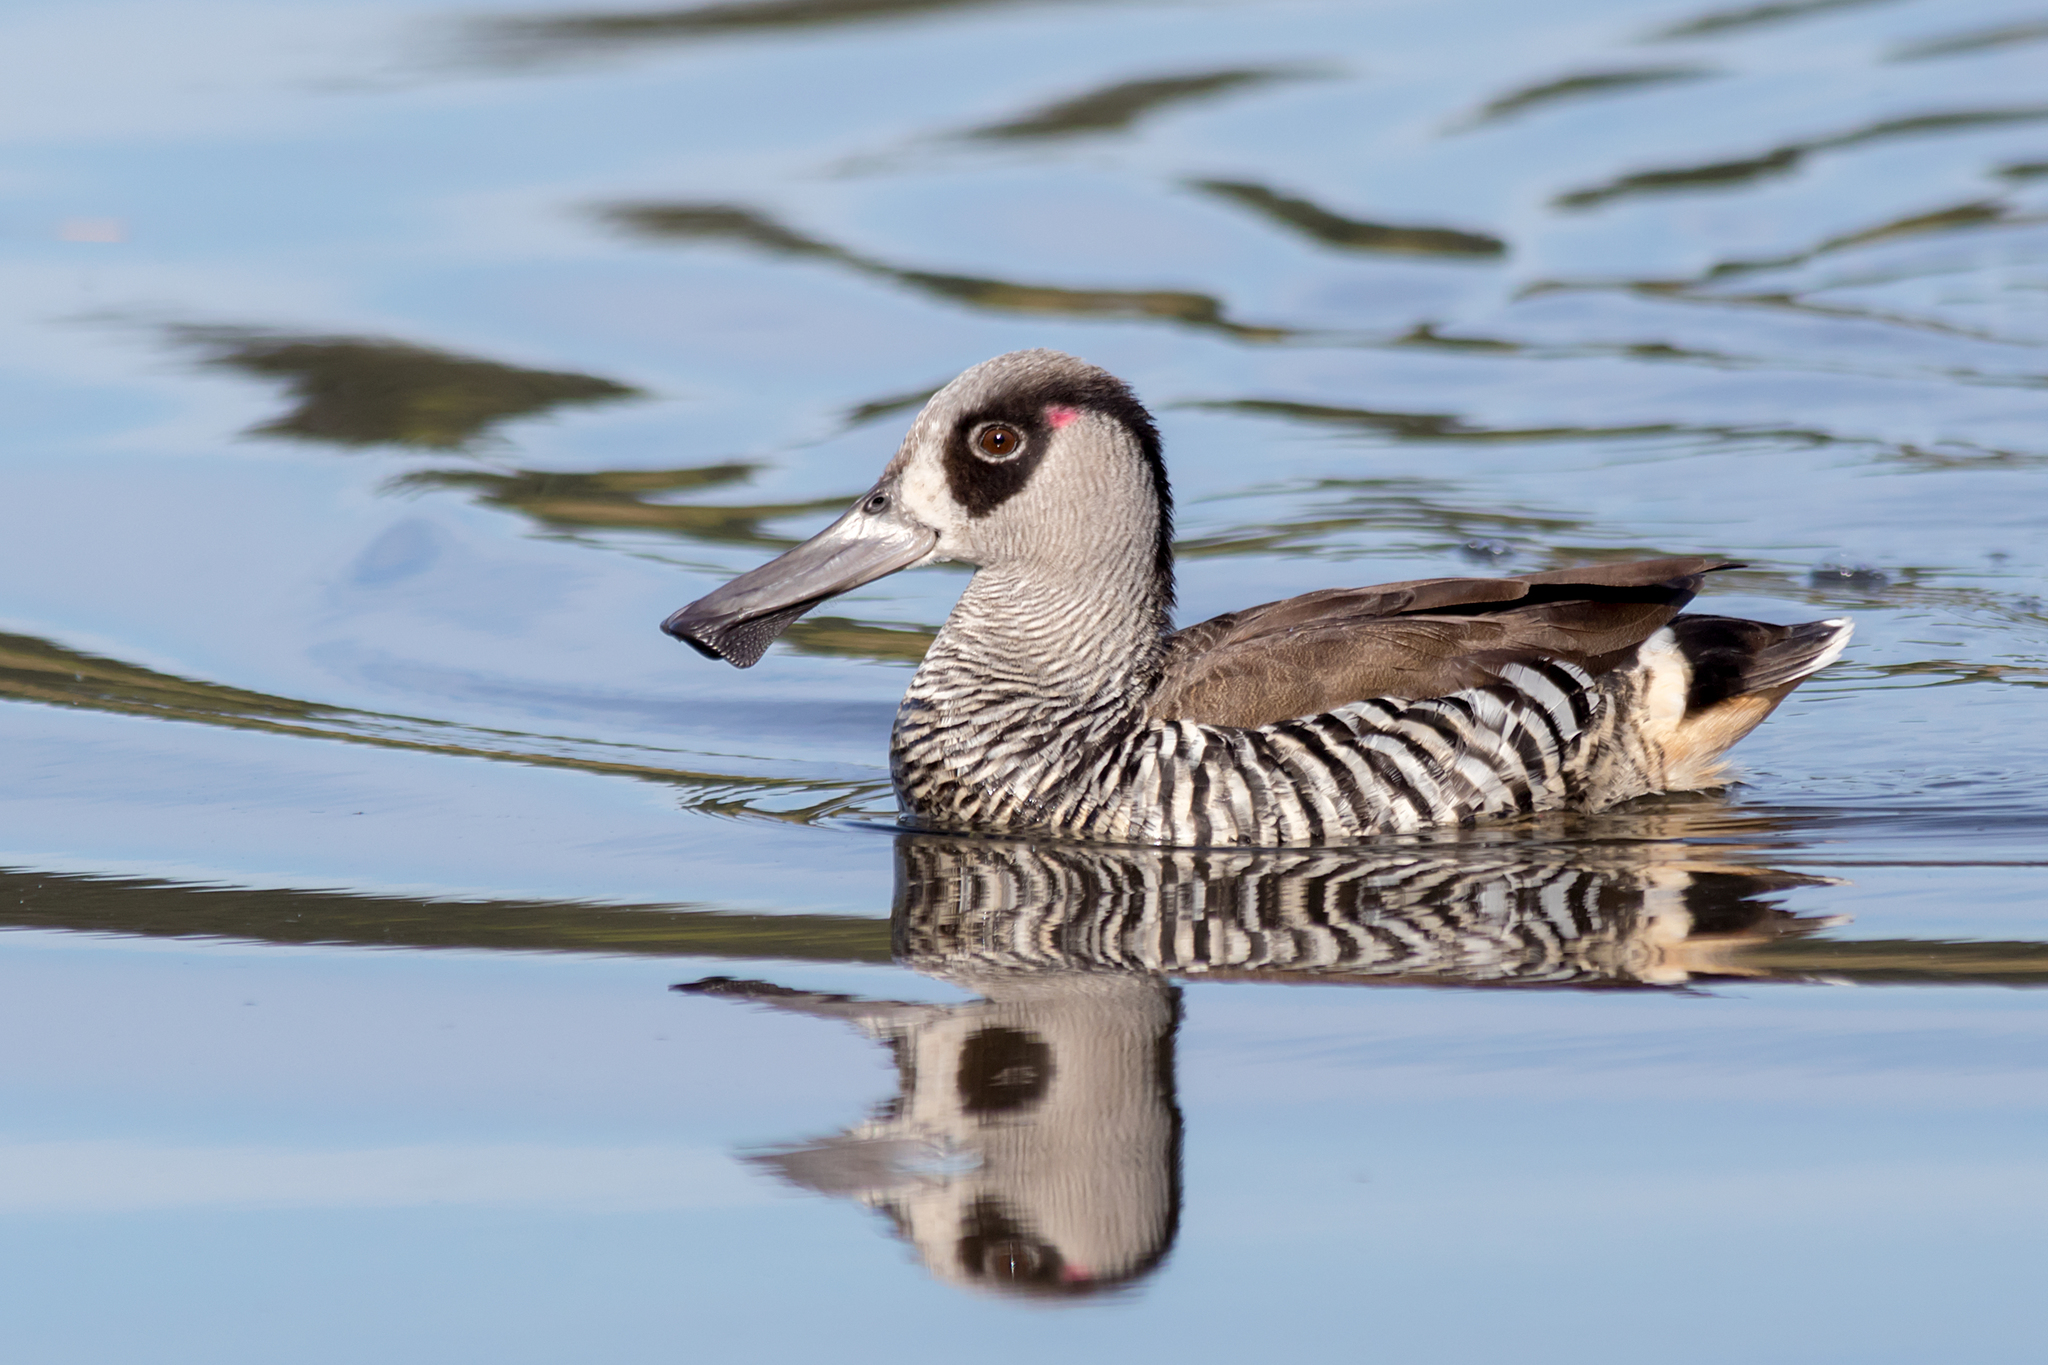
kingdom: Animalia
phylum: Chordata
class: Aves
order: Anseriformes
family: Anatidae
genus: Malacorhynchus
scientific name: Malacorhynchus membranaceus
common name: Pink-eared duck
